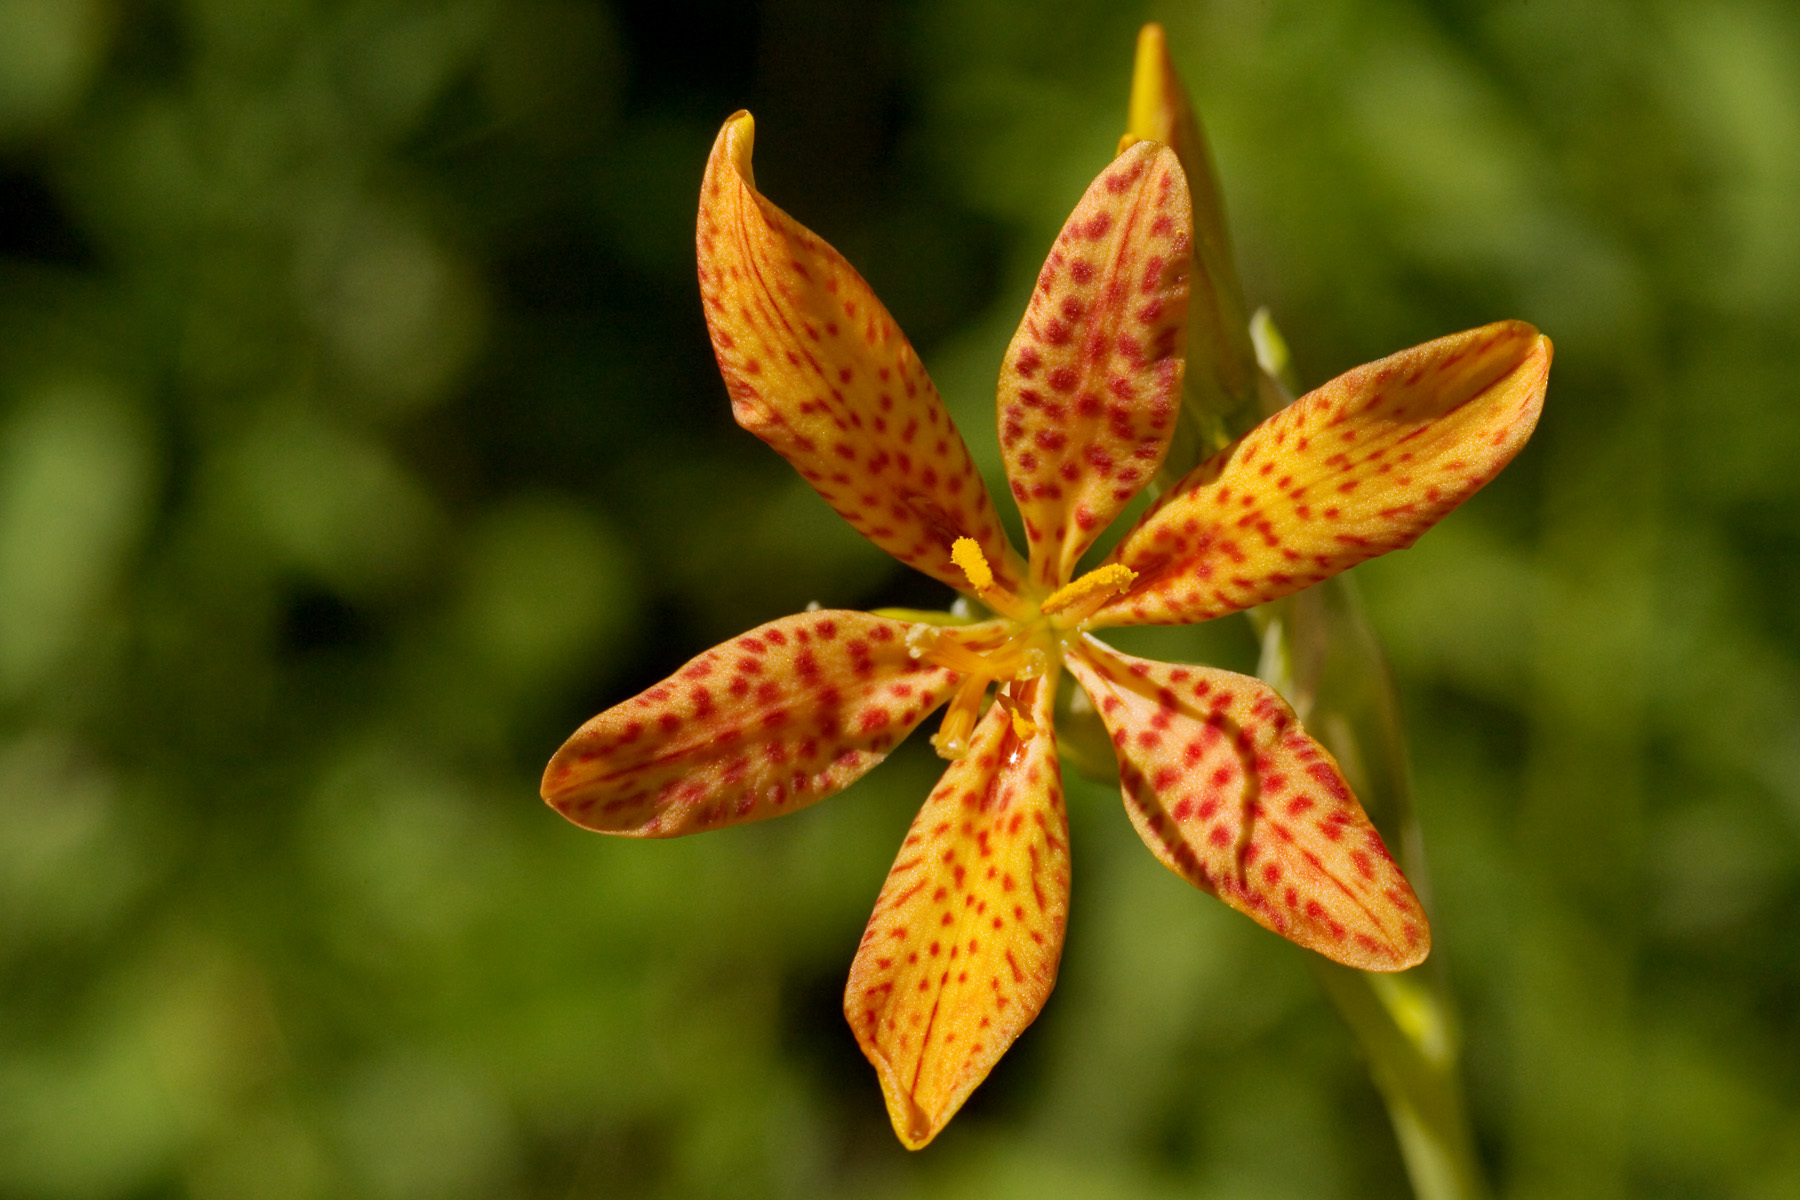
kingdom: Plantae
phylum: Tracheophyta
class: Liliopsida
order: Asparagales
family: Iridaceae
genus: Iris
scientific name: Iris domestica
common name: Belamcanda
